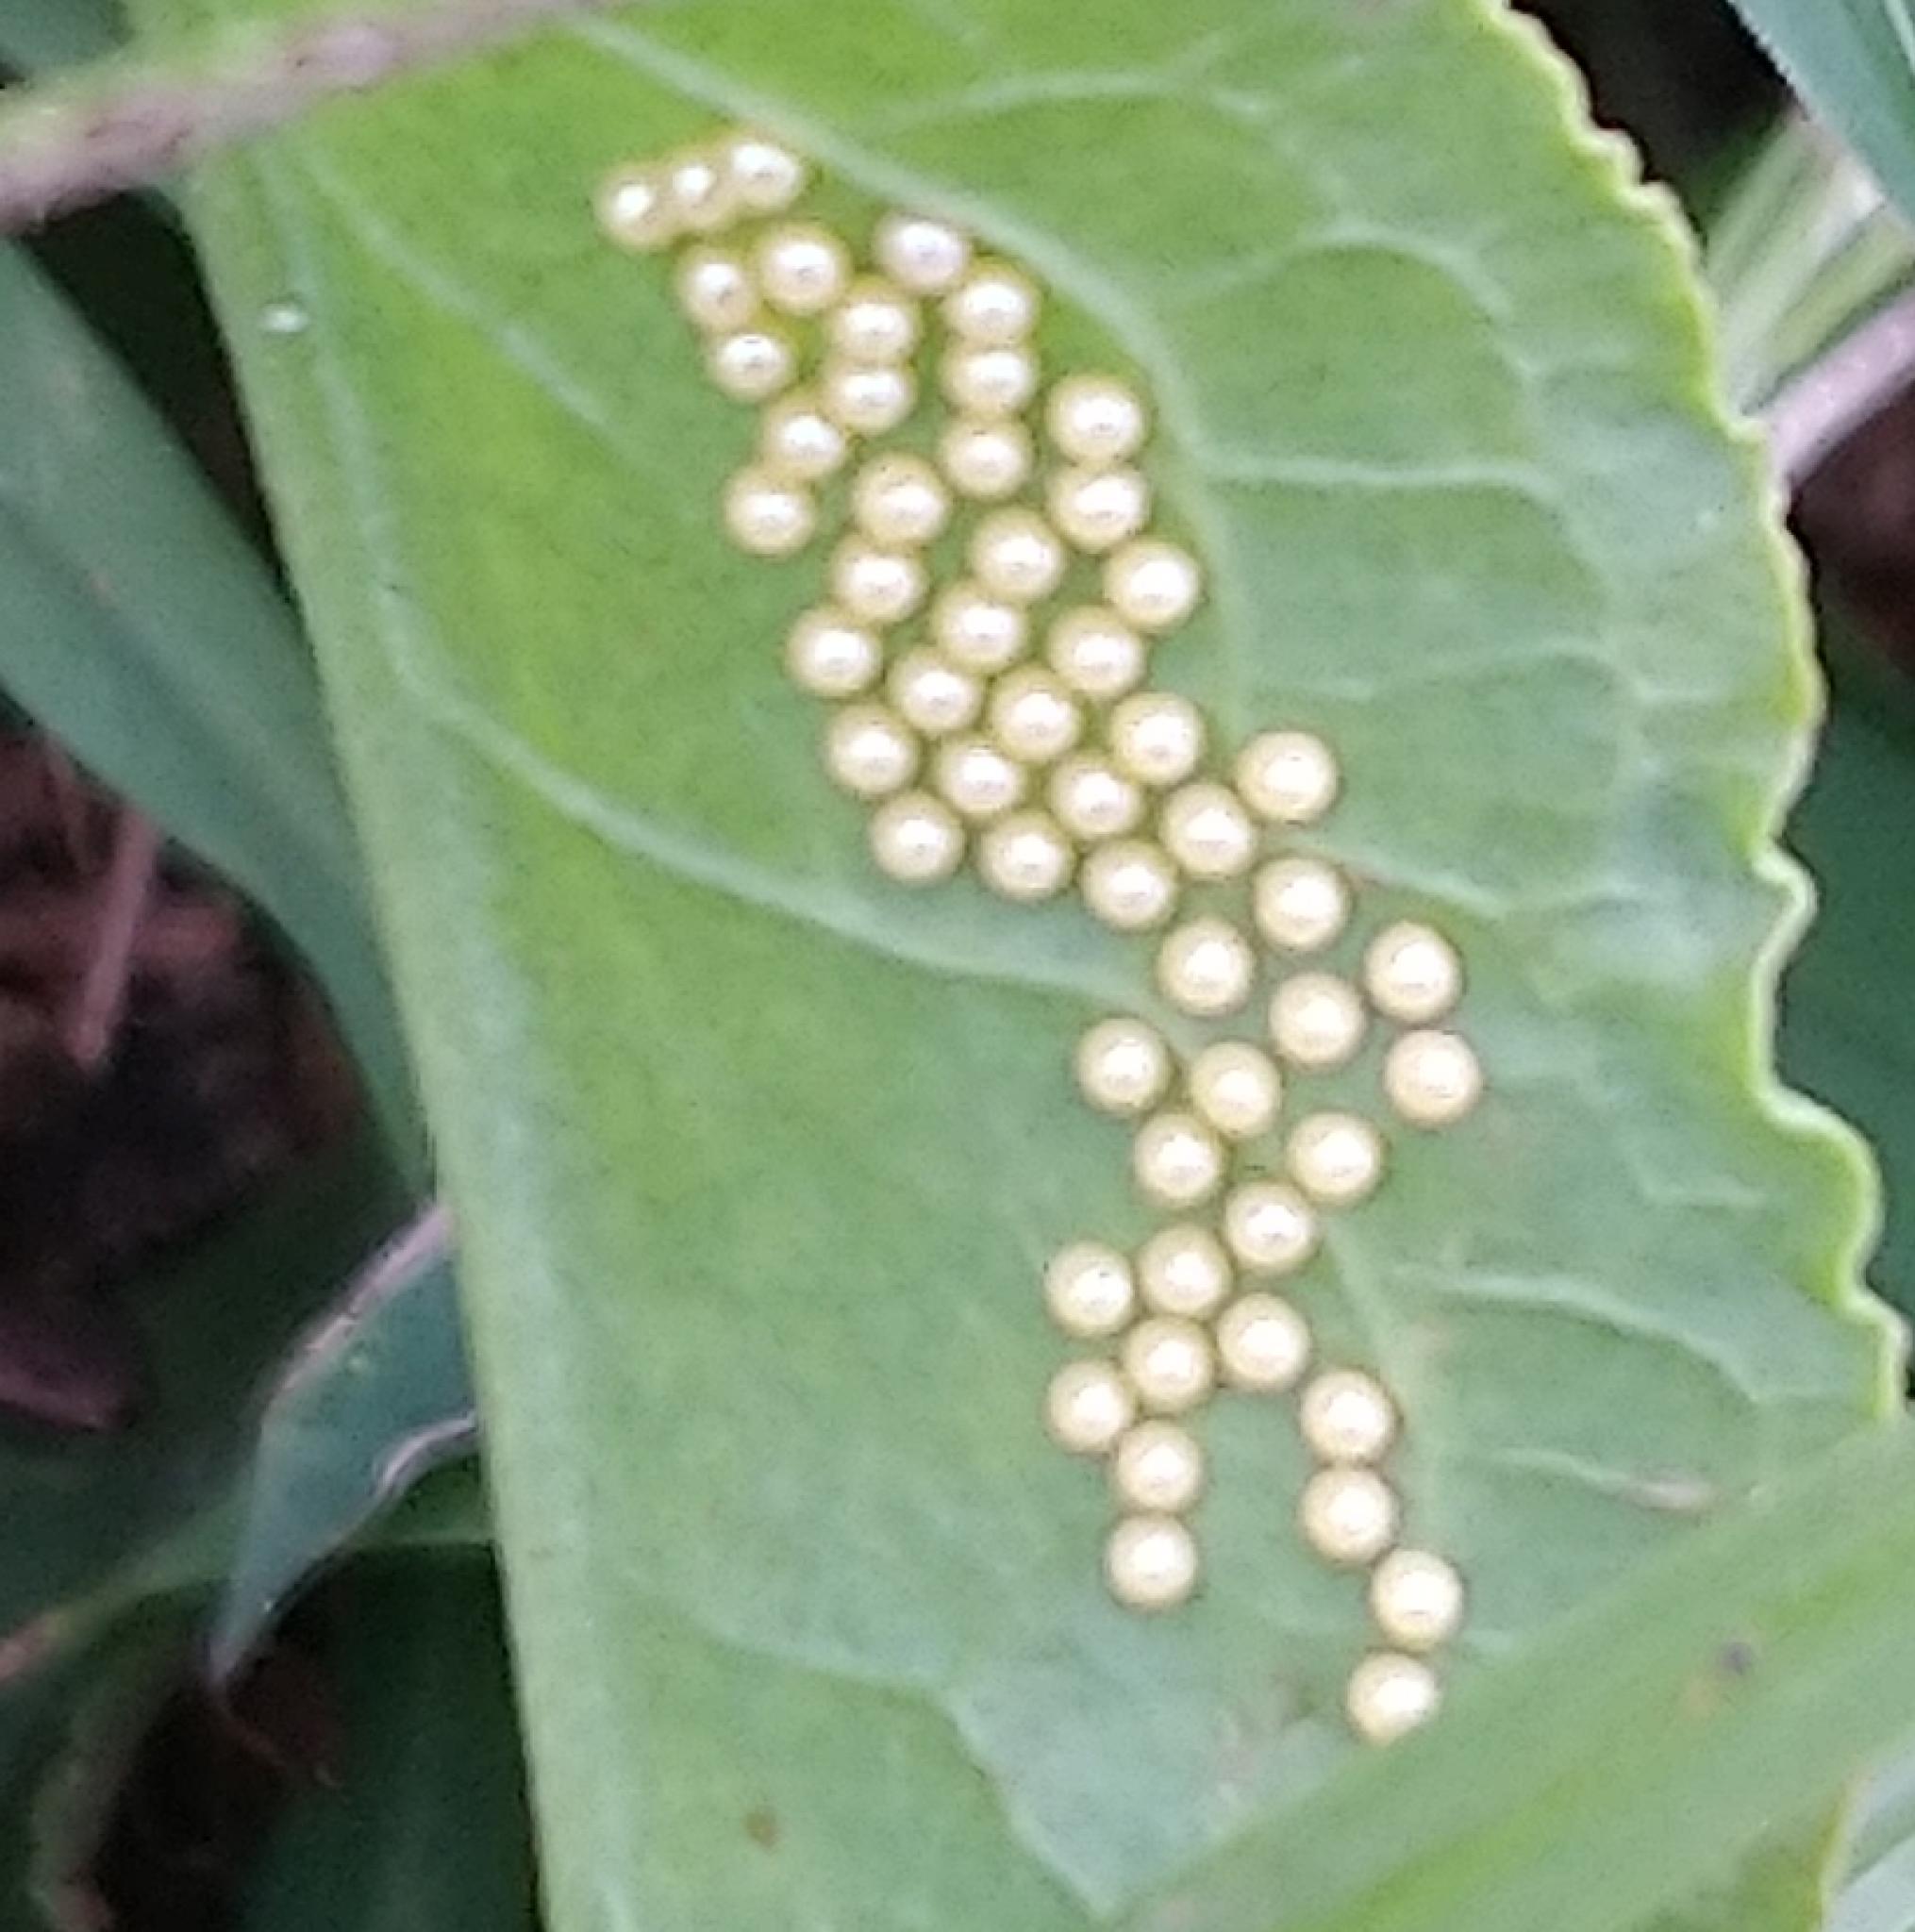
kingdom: Animalia
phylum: Arthropoda
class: Insecta
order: Lepidoptera
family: Erebidae
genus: Afromurzinia
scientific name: Afromurzinia lutescens
